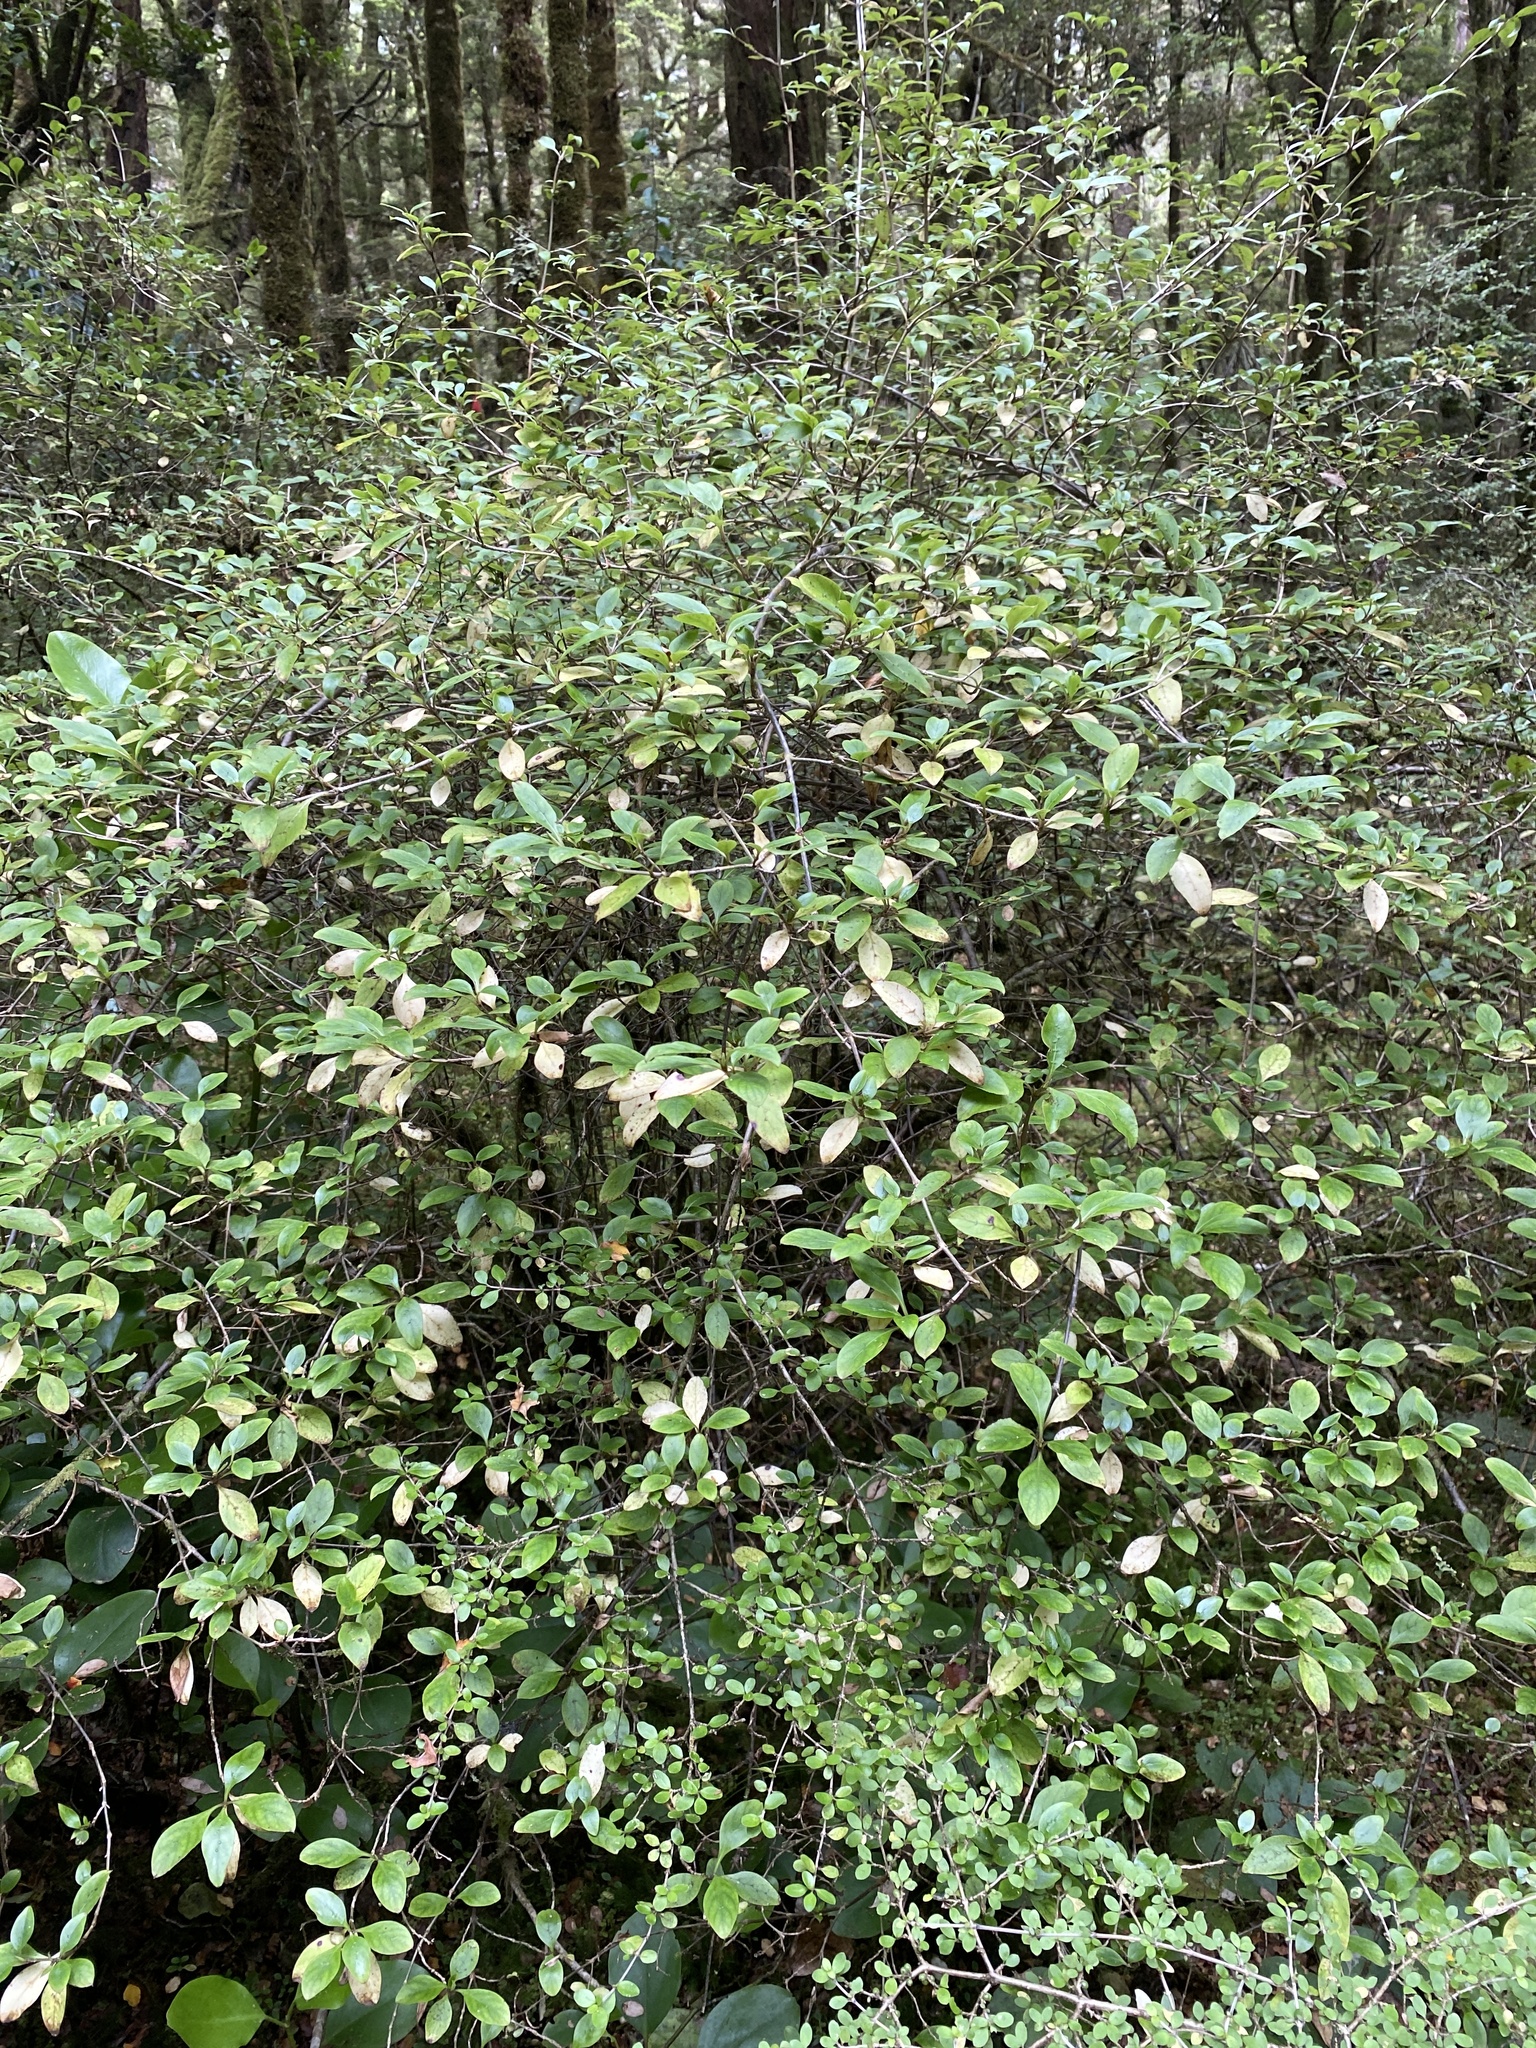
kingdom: Plantae
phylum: Tracheophyta
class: Magnoliopsida
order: Gentianales
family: Rubiaceae
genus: Coprosma
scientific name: Coprosma foetidissima
